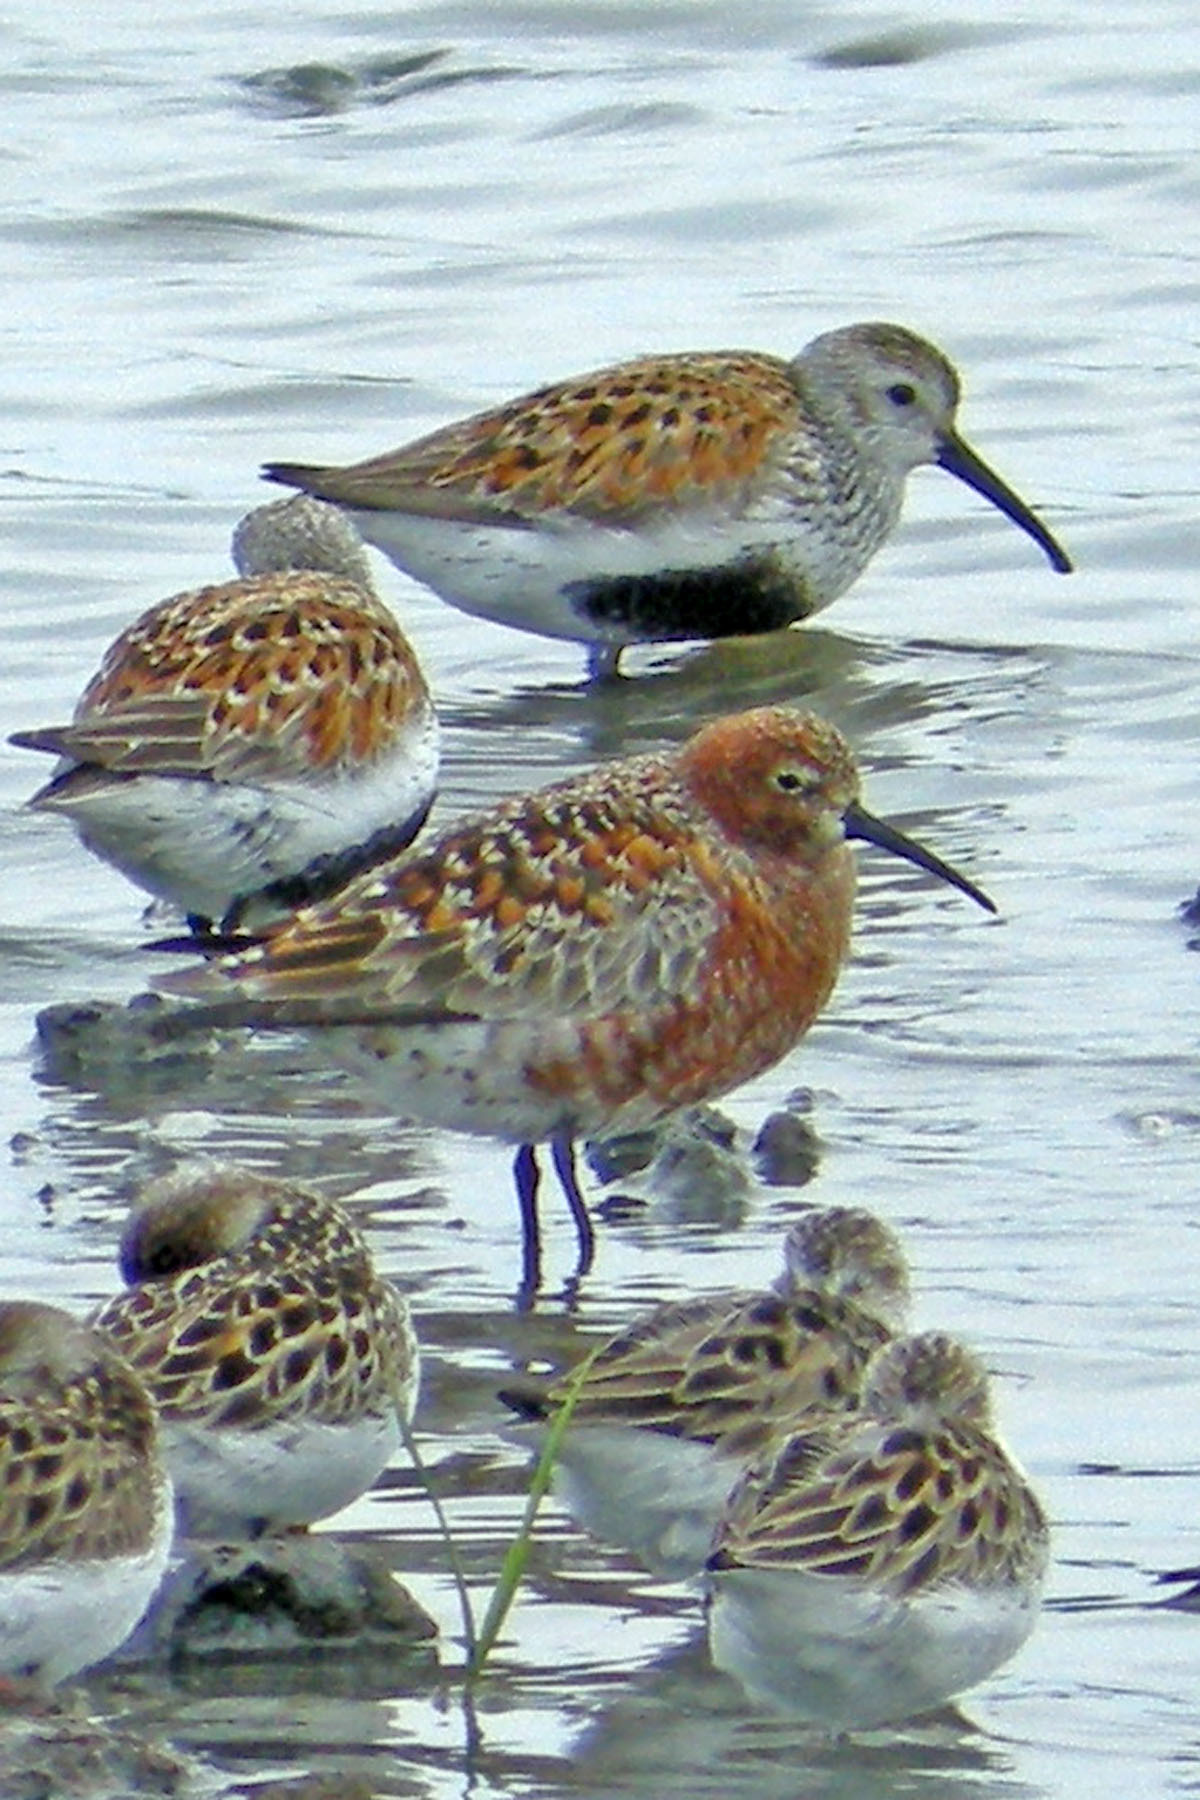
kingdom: Animalia
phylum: Chordata
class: Aves
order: Charadriiformes
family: Scolopacidae
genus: Calidris
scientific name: Calidris ferruginea
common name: Curlew sandpiper
